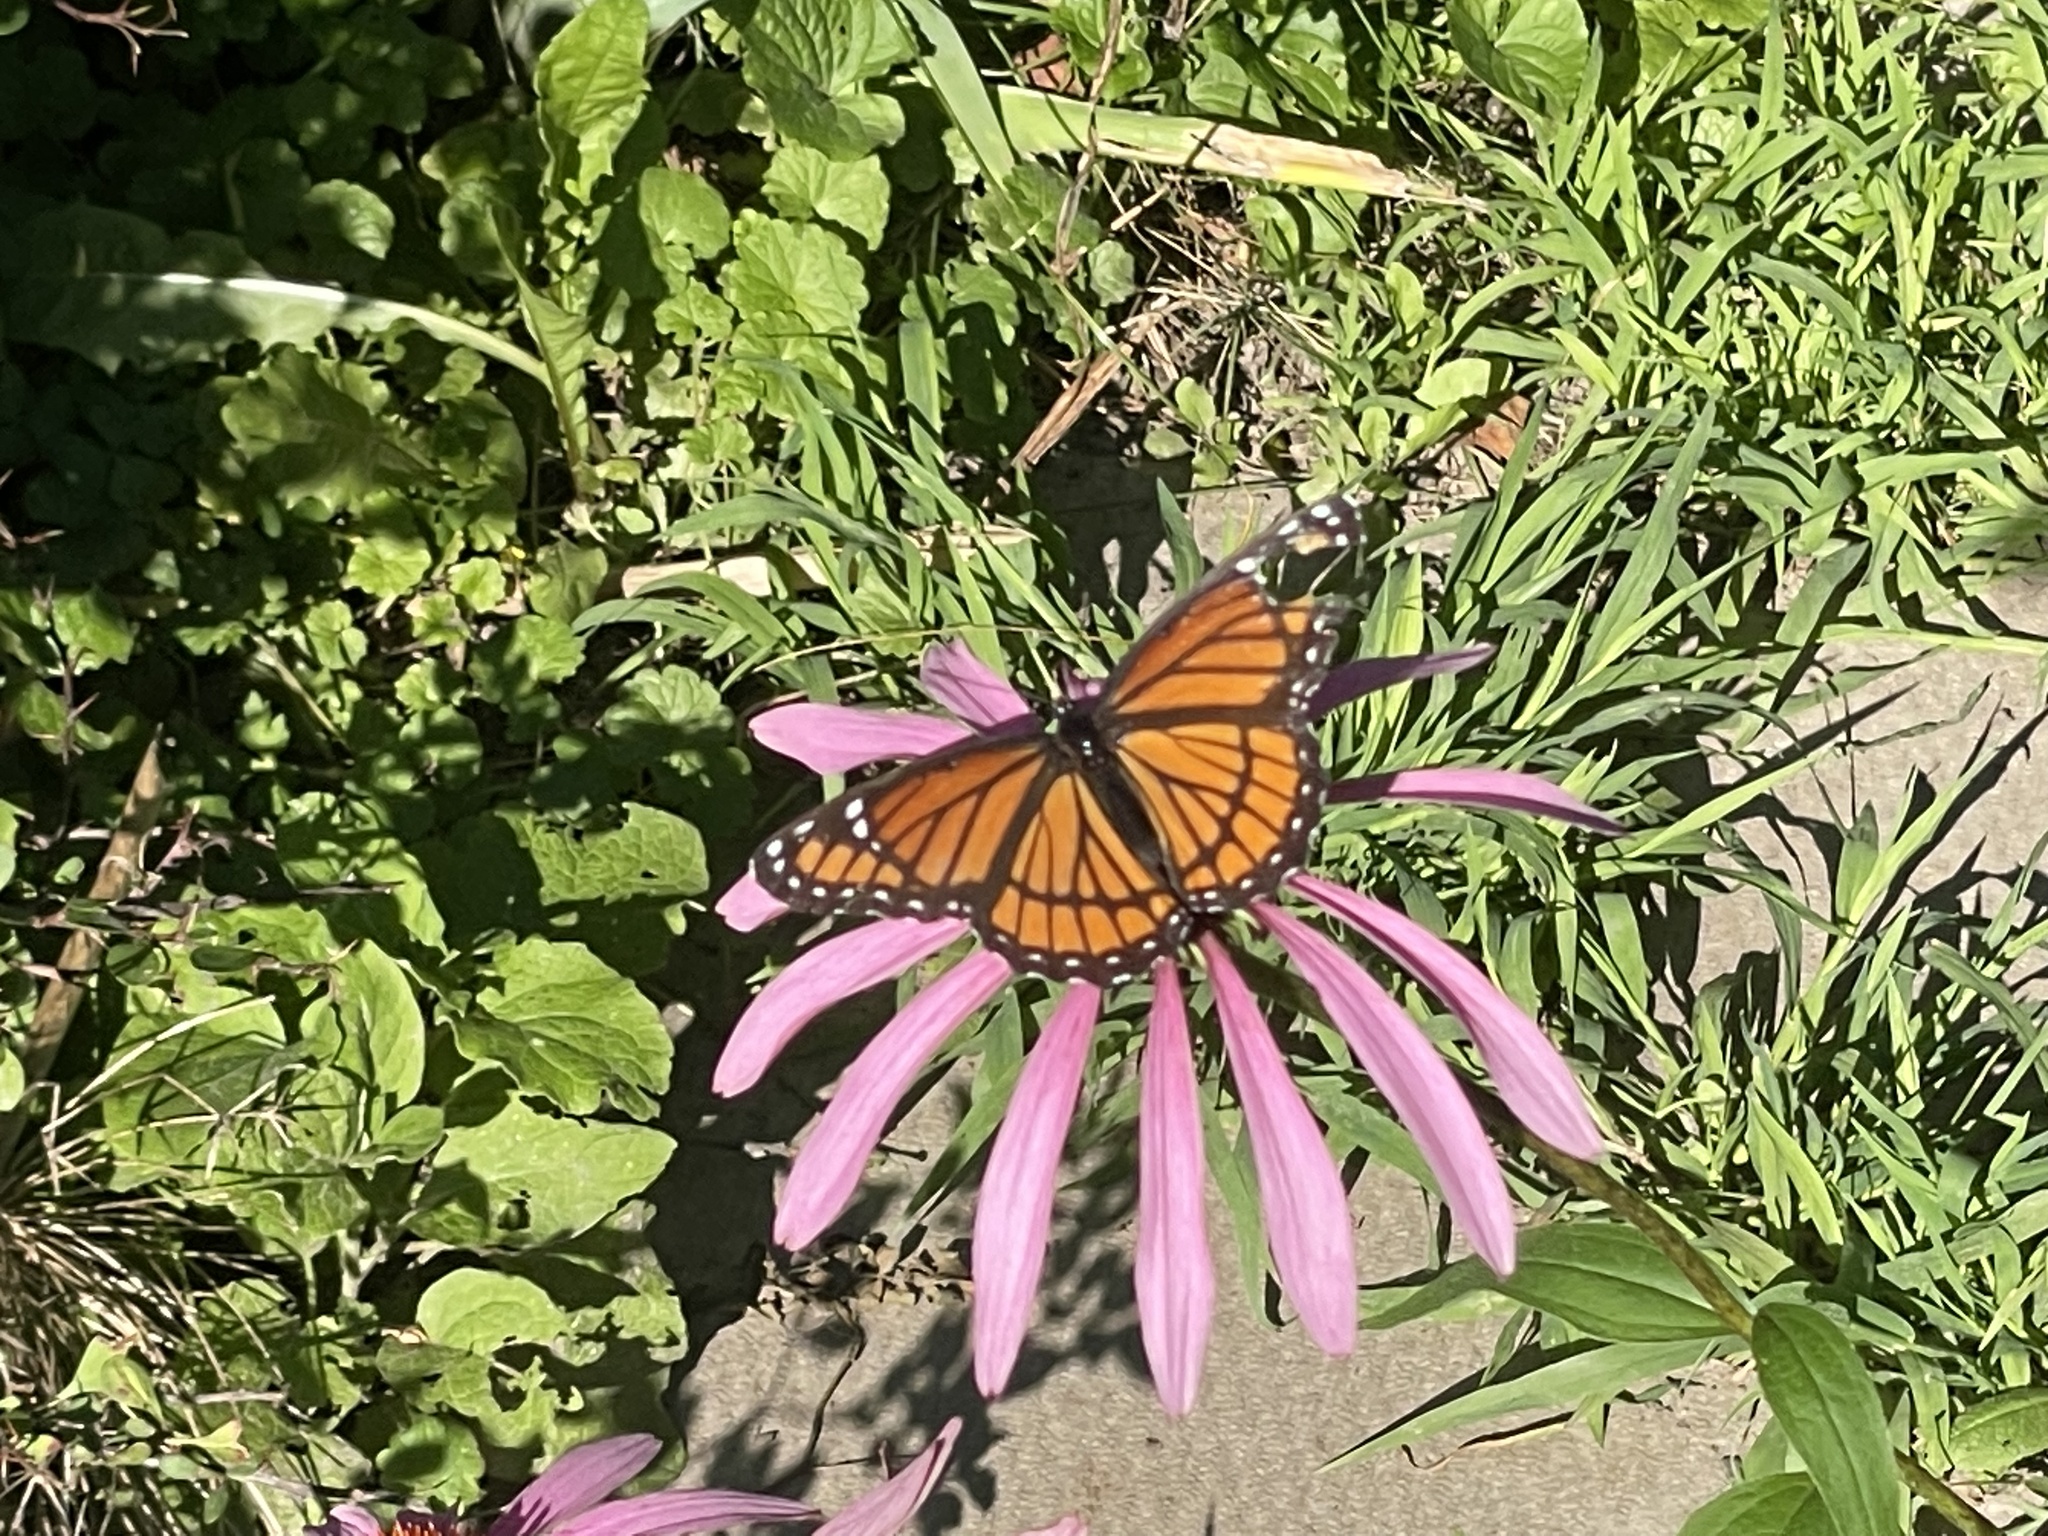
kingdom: Animalia
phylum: Arthropoda
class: Insecta
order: Lepidoptera
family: Nymphalidae
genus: Limenitis
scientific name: Limenitis archippus
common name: Viceroy
